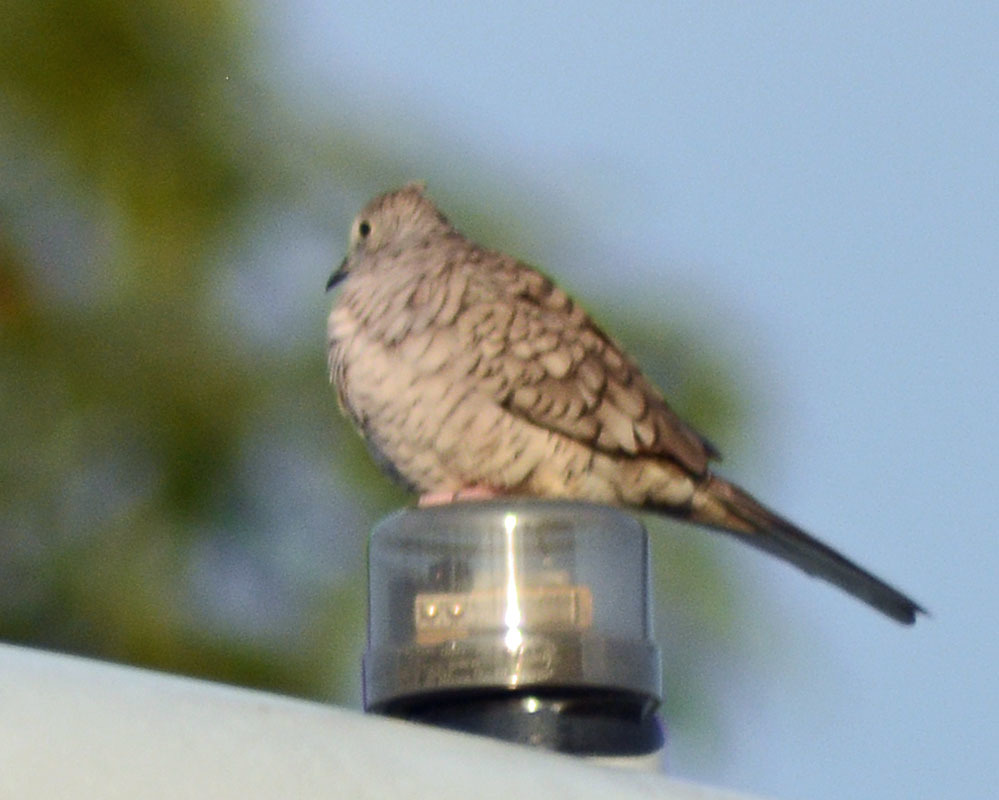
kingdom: Animalia
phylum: Chordata
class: Aves
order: Columbiformes
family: Columbidae
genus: Columbina
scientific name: Columbina inca
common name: Inca dove
